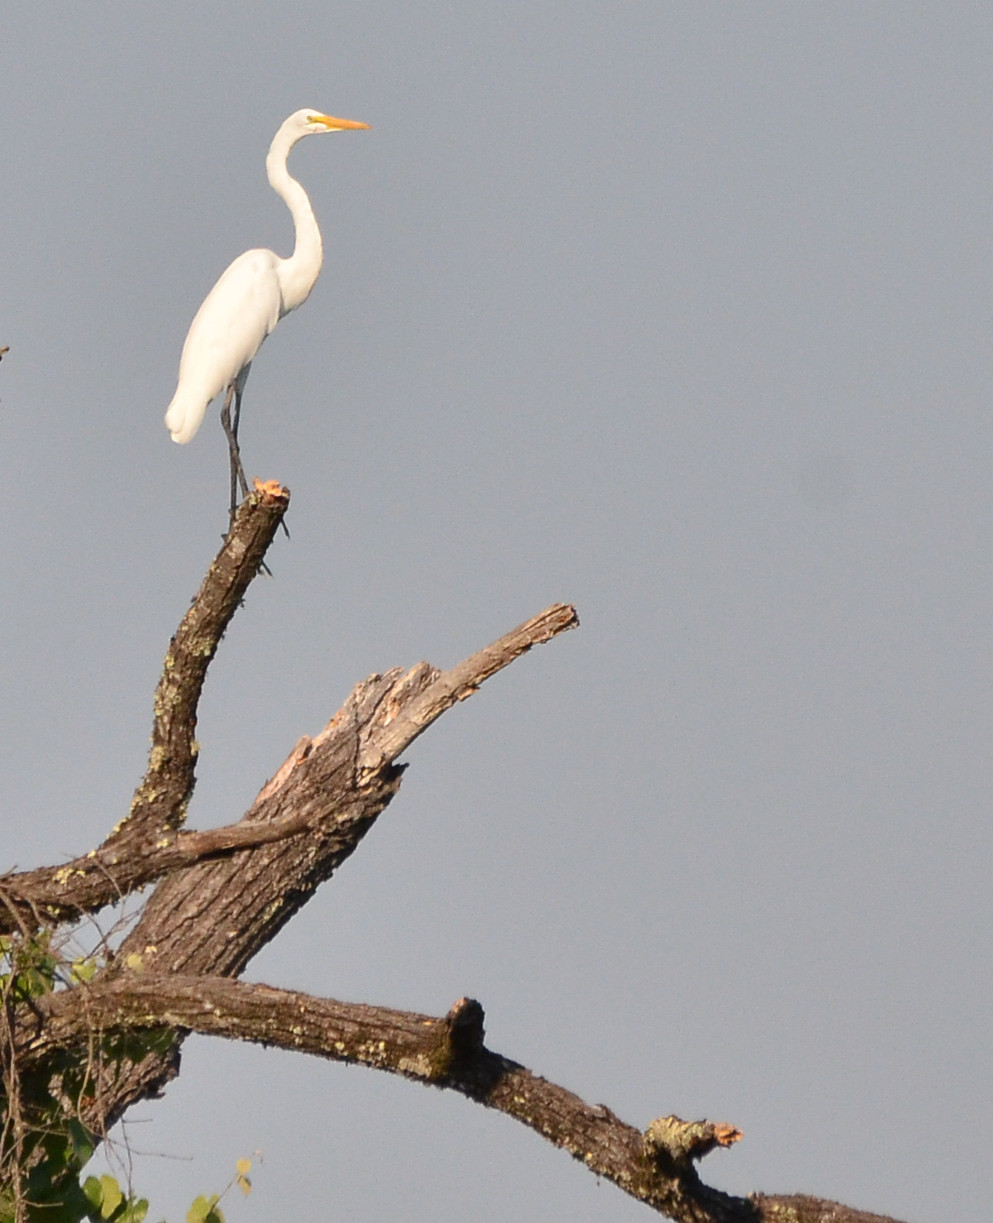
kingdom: Animalia
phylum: Chordata
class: Aves
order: Pelecaniformes
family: Ardeidae
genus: Ardea
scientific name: Ardea alba
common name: Great egret
